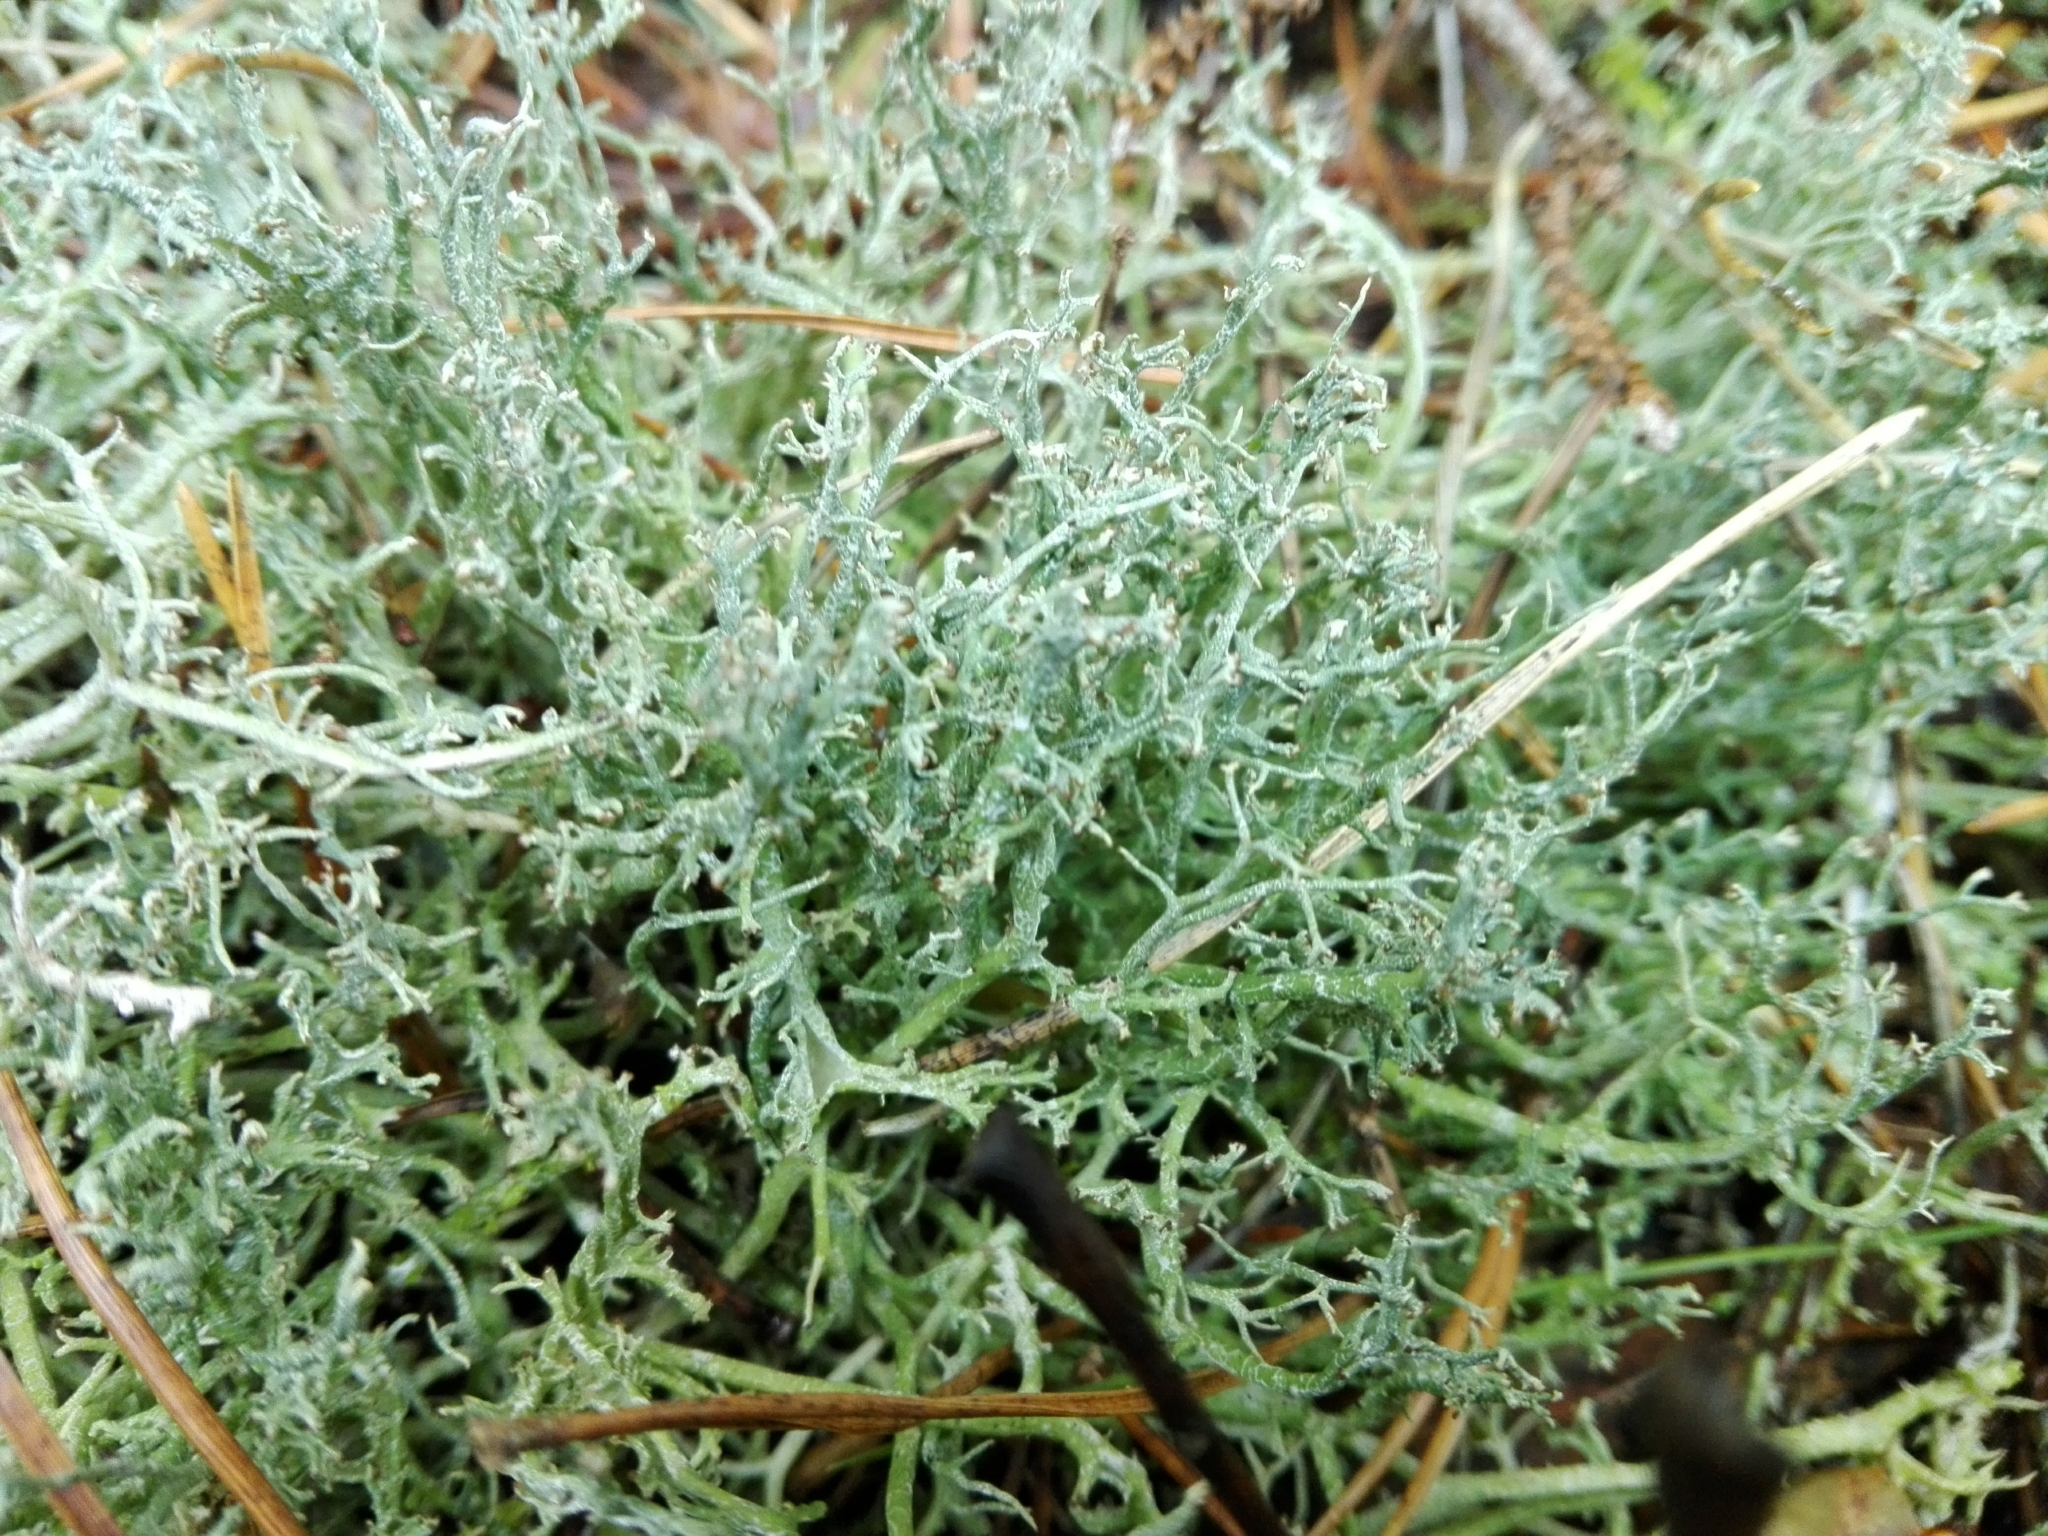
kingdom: Fungi
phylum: Ascomycota
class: Lecanoromycetes
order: Lecanorales
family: Cladoniaceae
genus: Cladonia
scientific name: Cladonia furcata
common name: Many-forked cladonia
